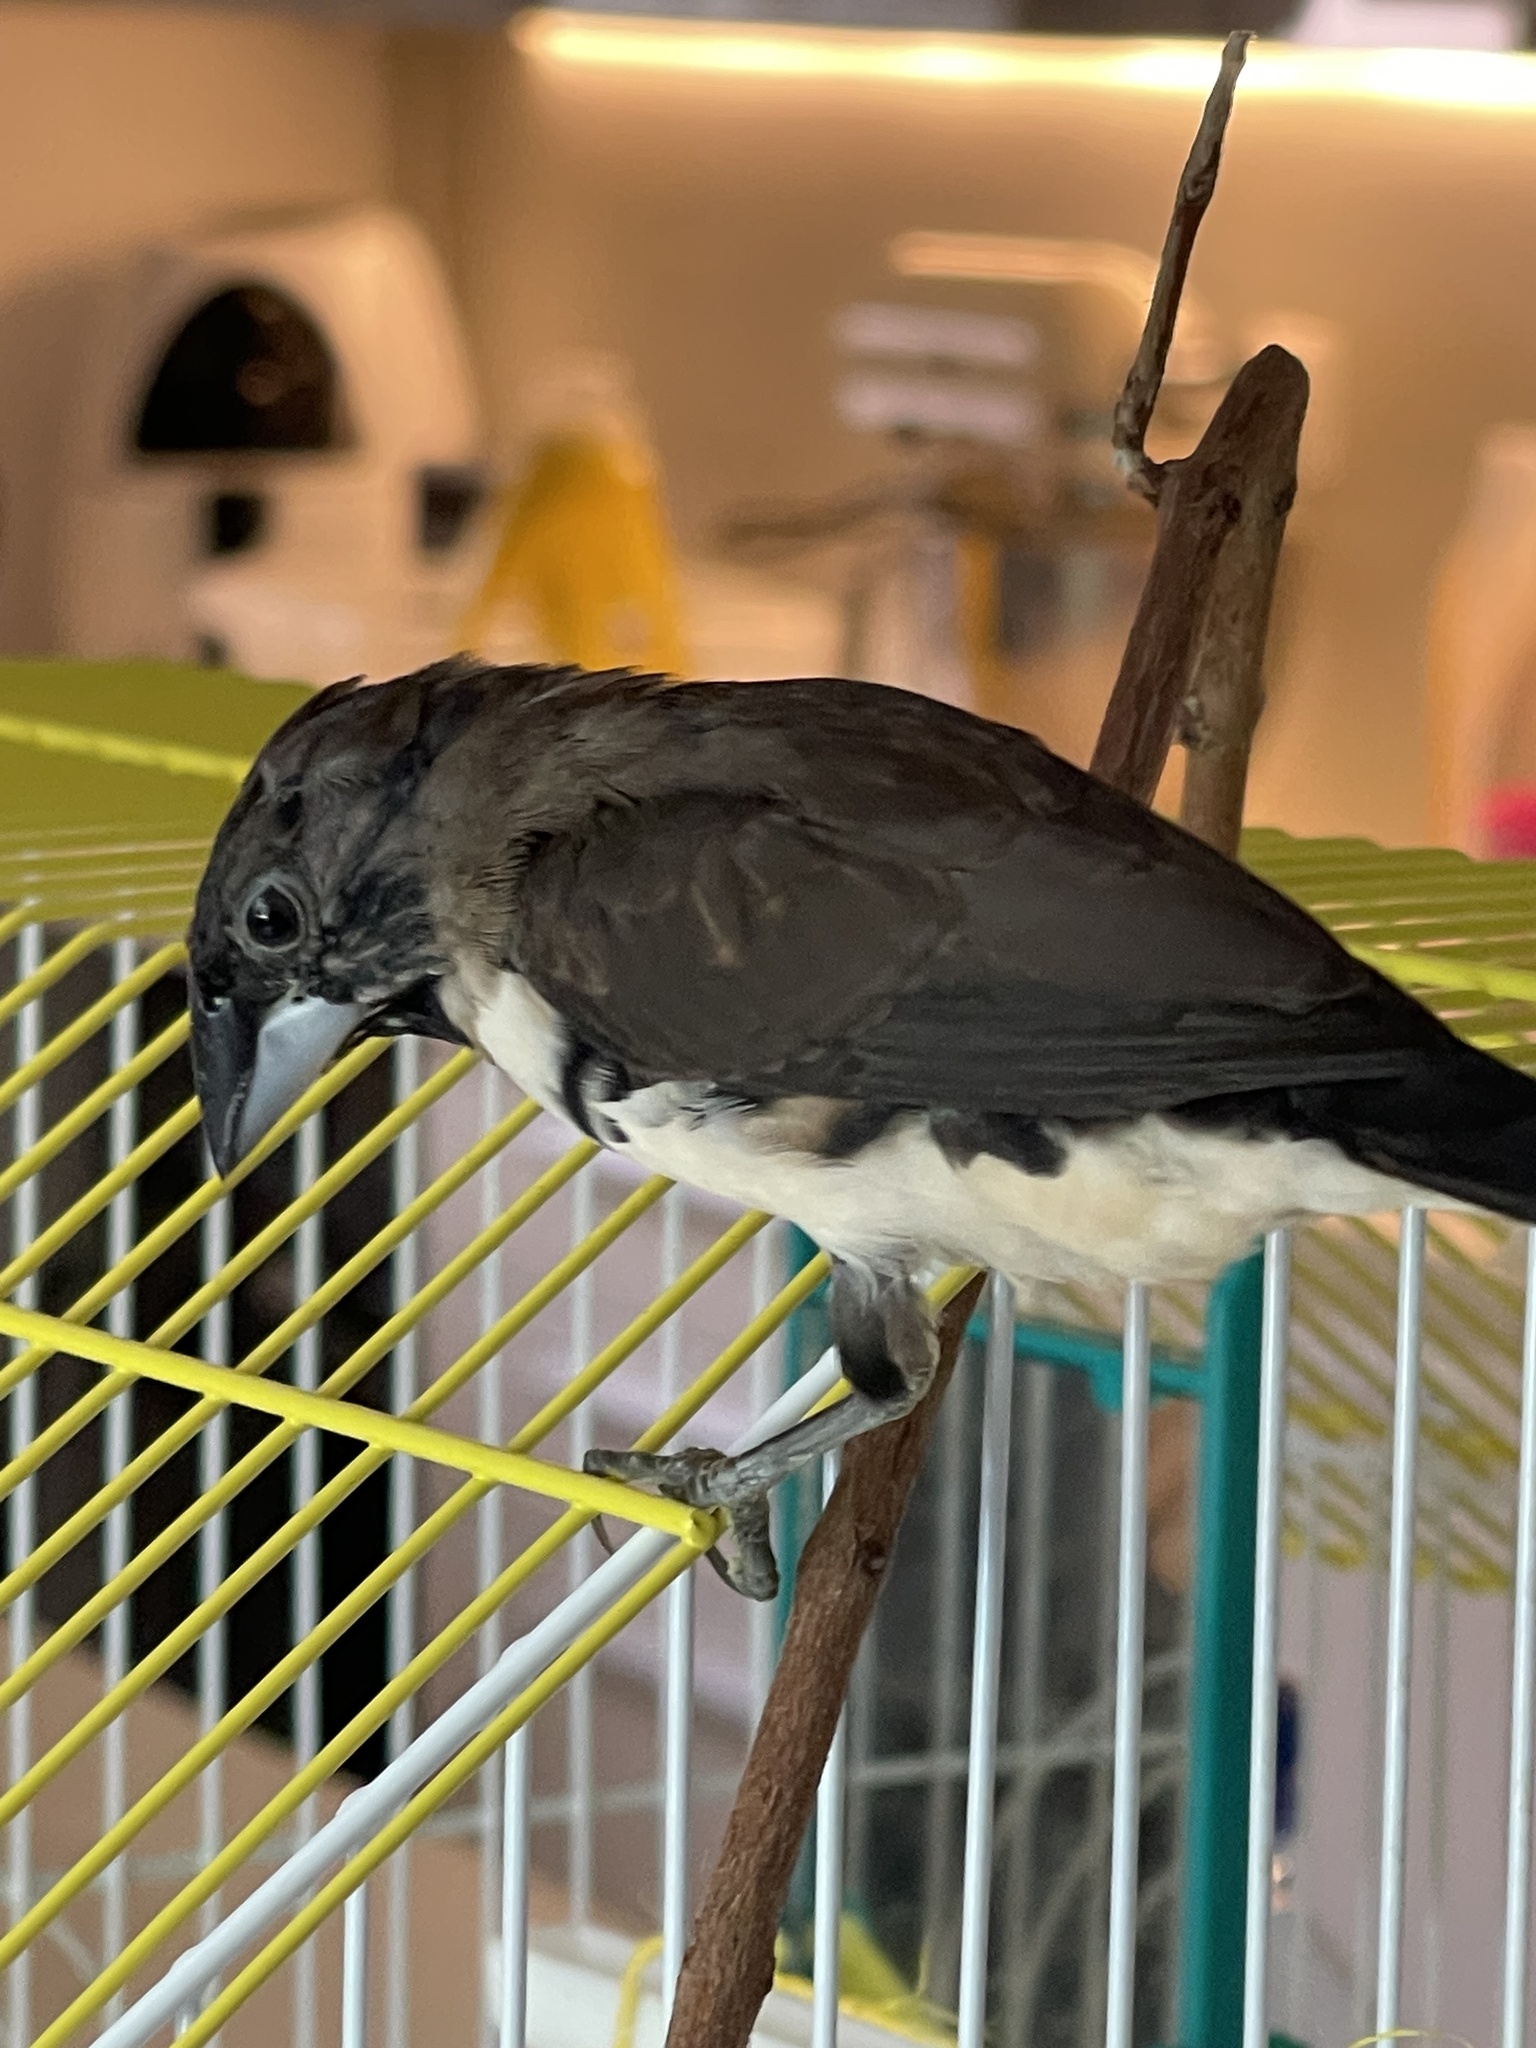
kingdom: Animalia
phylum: Chordata
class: Aves
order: Passeriformes
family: Estrildidae
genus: Lonchura
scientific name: Lonchura fringilloides
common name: Magpie mannikin
